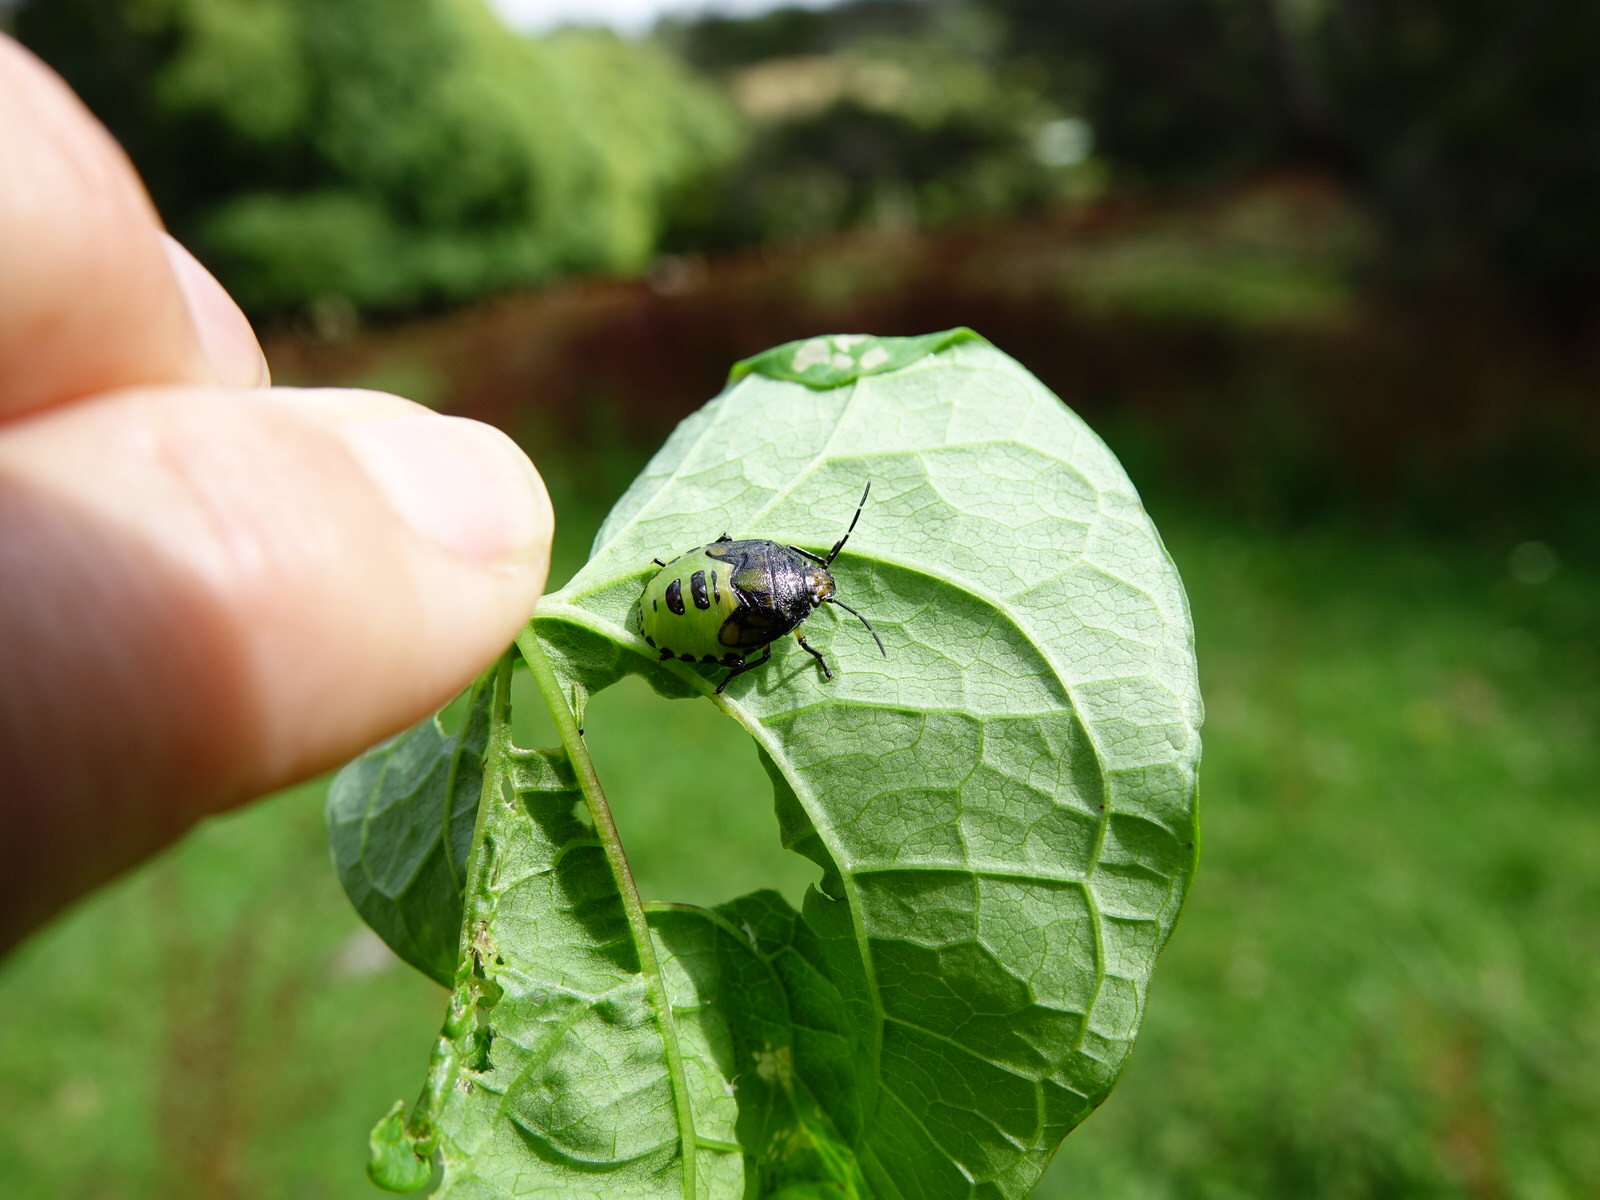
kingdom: Animalia
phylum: Arthropoda
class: Insecta
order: Hemiptera
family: Pentatomidae
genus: Glaucias
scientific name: Glaucias amyota
